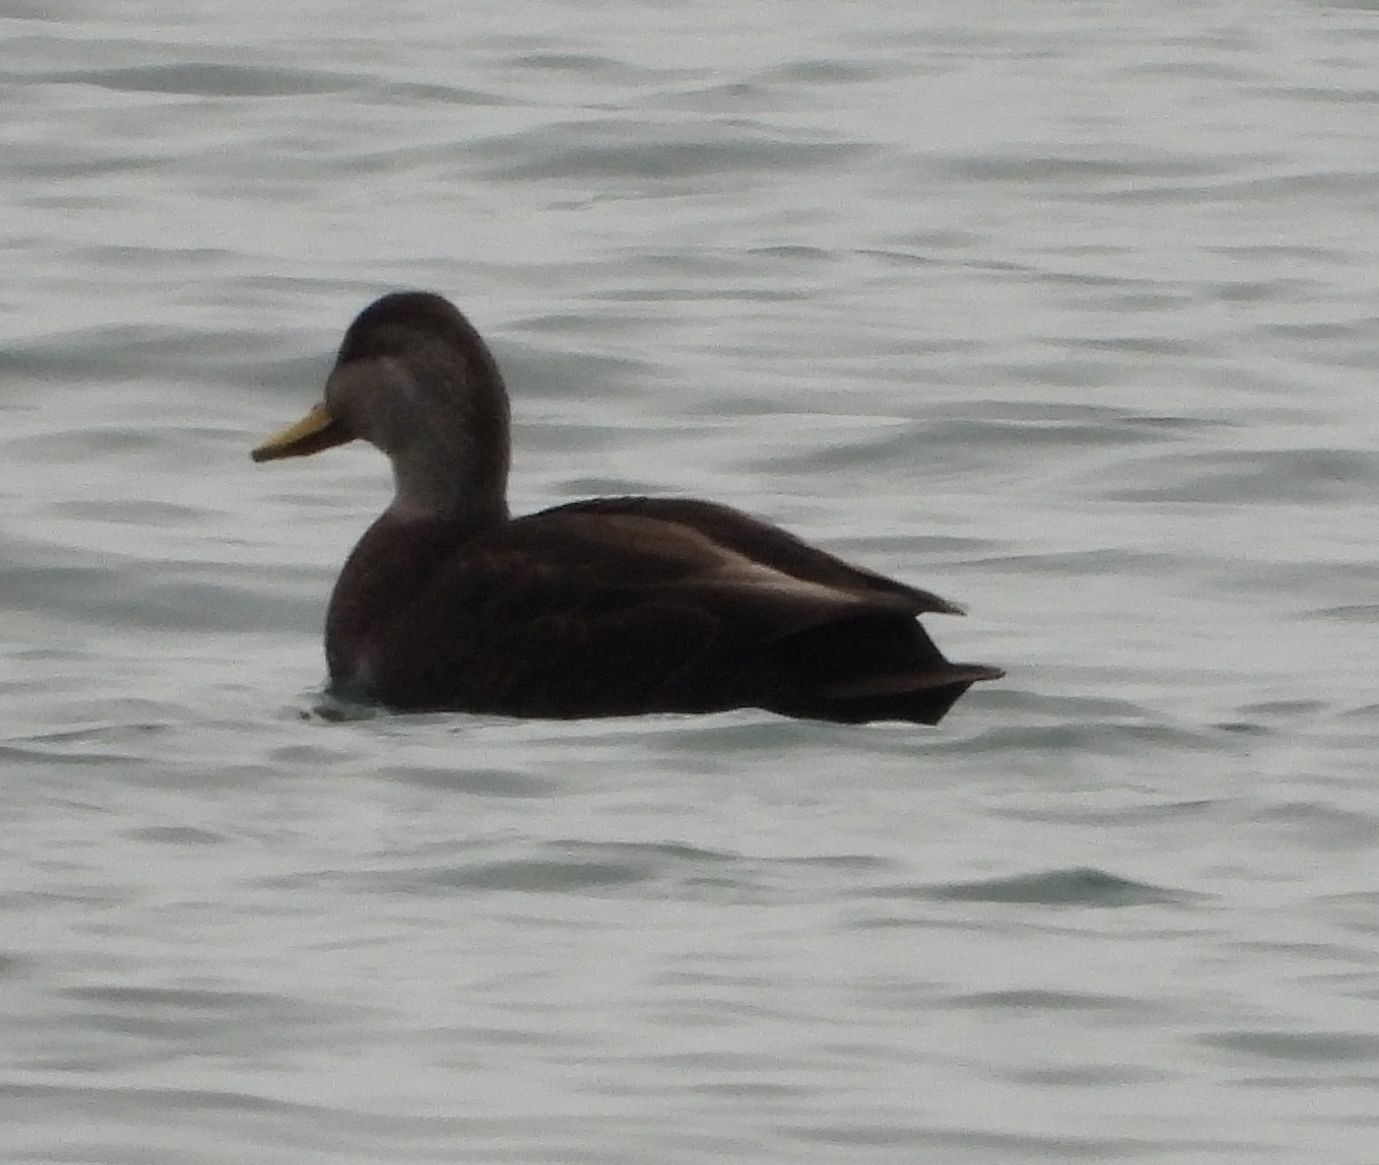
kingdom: Animalia
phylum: Chordata
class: Aves
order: Anseriformes
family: Anatidae
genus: Anas
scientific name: Anas rubripes
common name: American black duck
